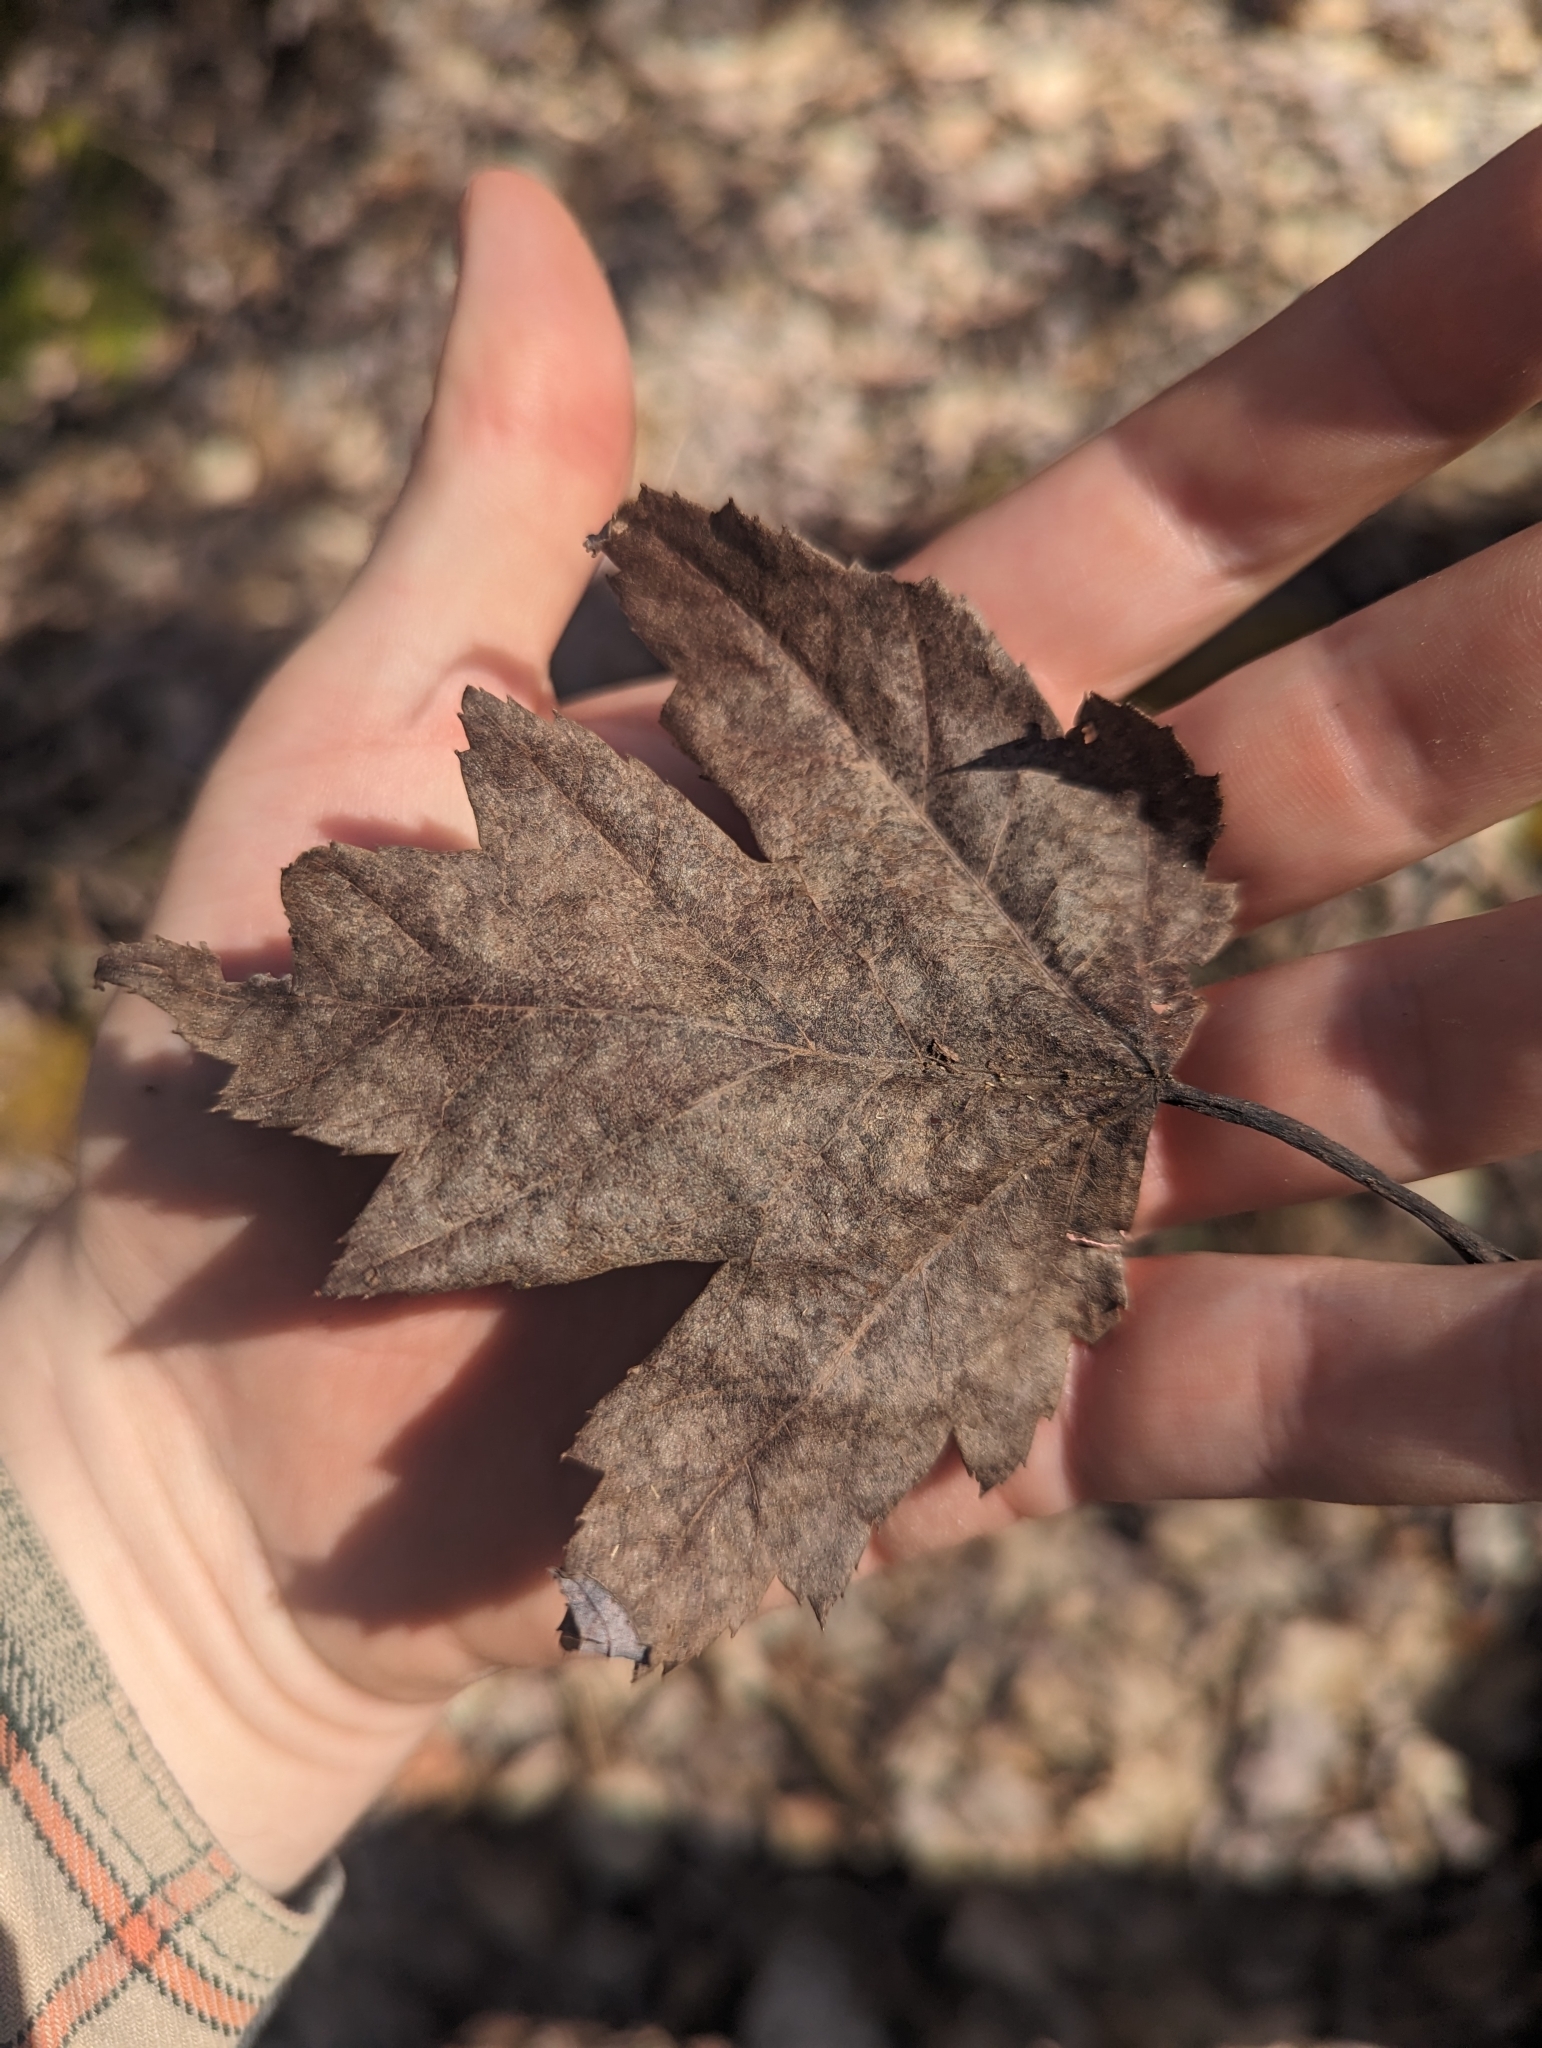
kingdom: Plantae
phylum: Tracheophyta
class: Magnoliopsida
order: Sapindales
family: Sapindaceae
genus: Acer
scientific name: Acer rubrum
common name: Red maple
